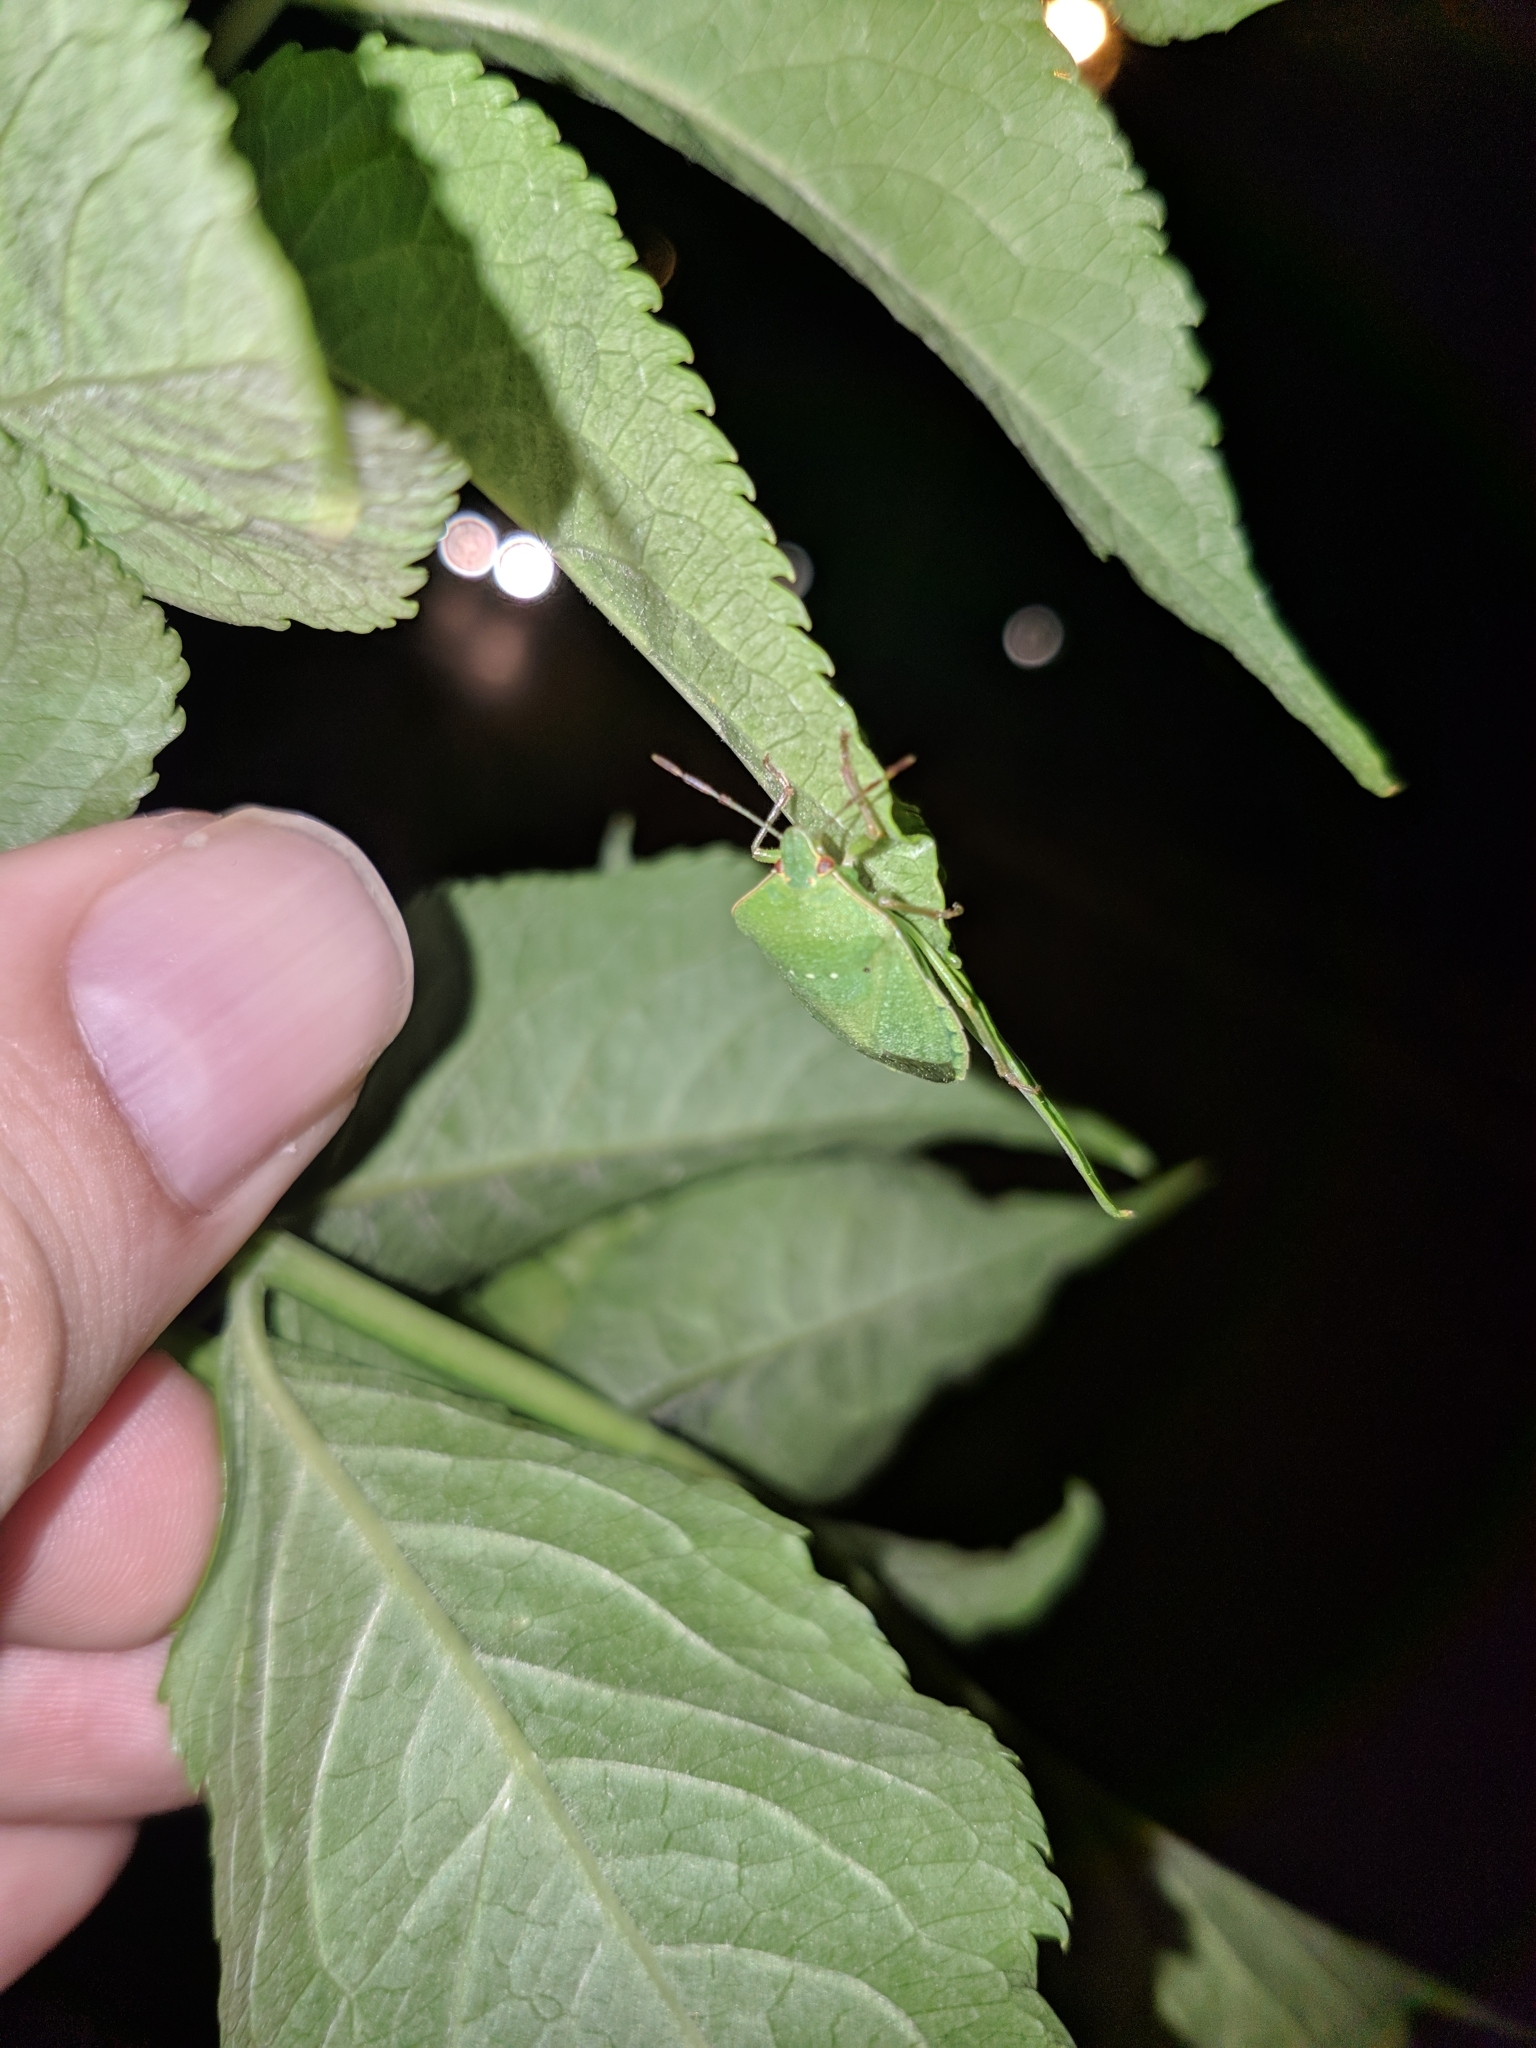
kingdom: Animalia
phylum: Arthropoda
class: Insecta
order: Hemiptera
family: Pentatomidae
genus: Nezara
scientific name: Nezara viridula
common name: Southern green stink bug
